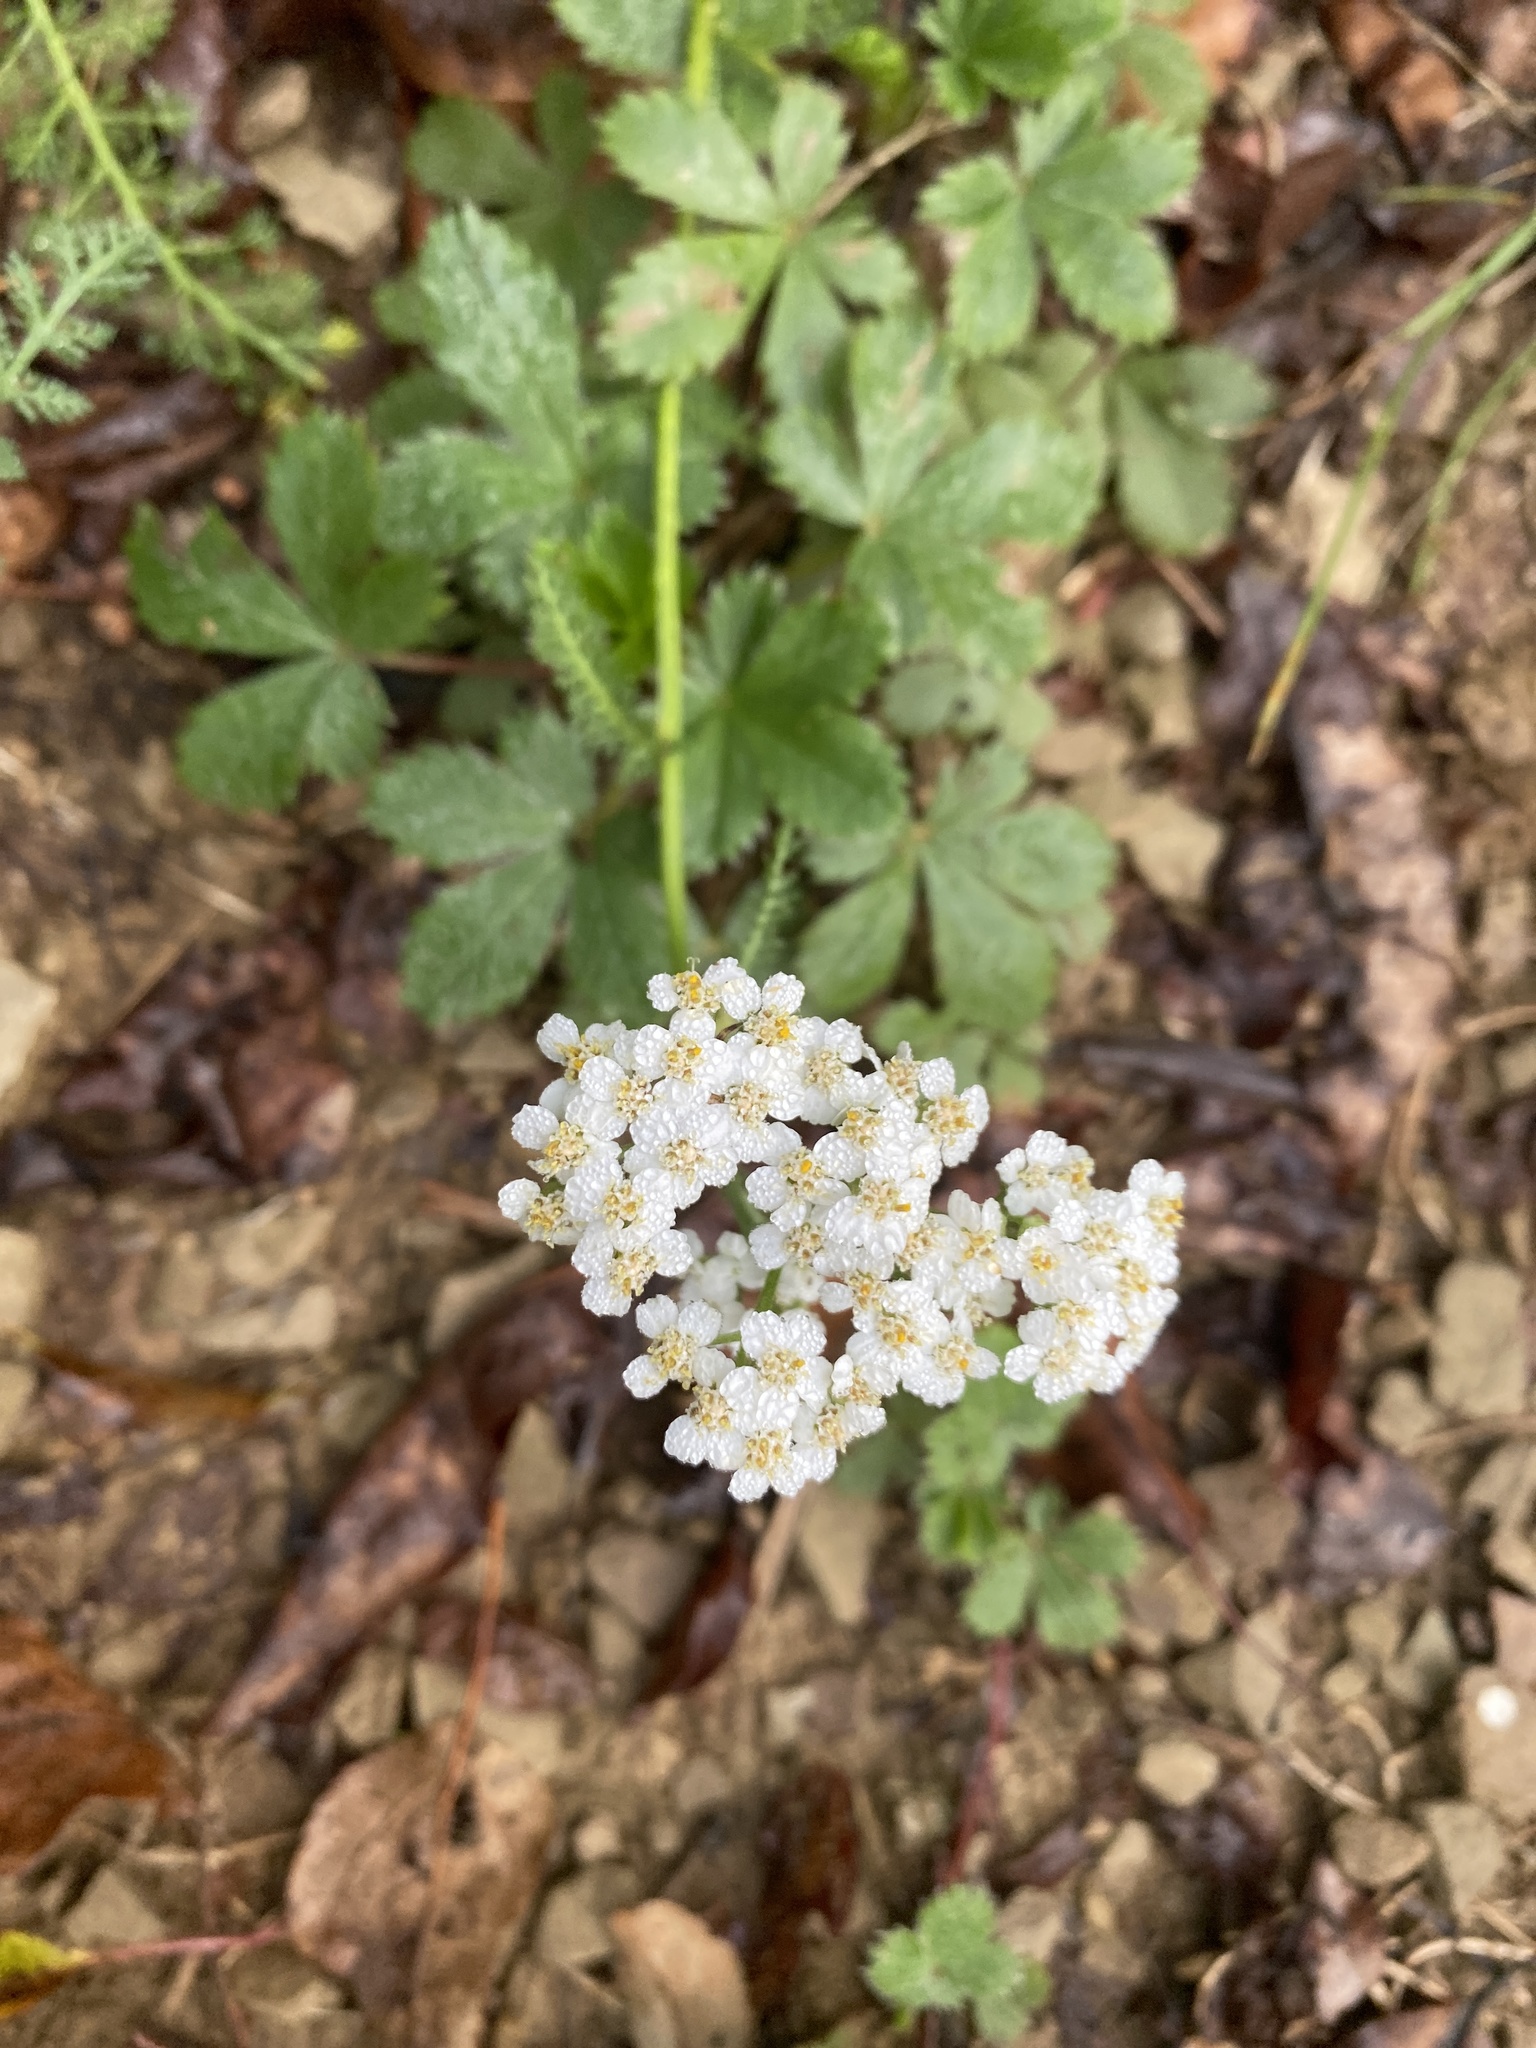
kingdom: Plantae
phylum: Tracheophyta
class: Magnoliopsida
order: Asterales
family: Asteraceae
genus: Achillea
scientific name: Achillea millefolium
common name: Yarrow
